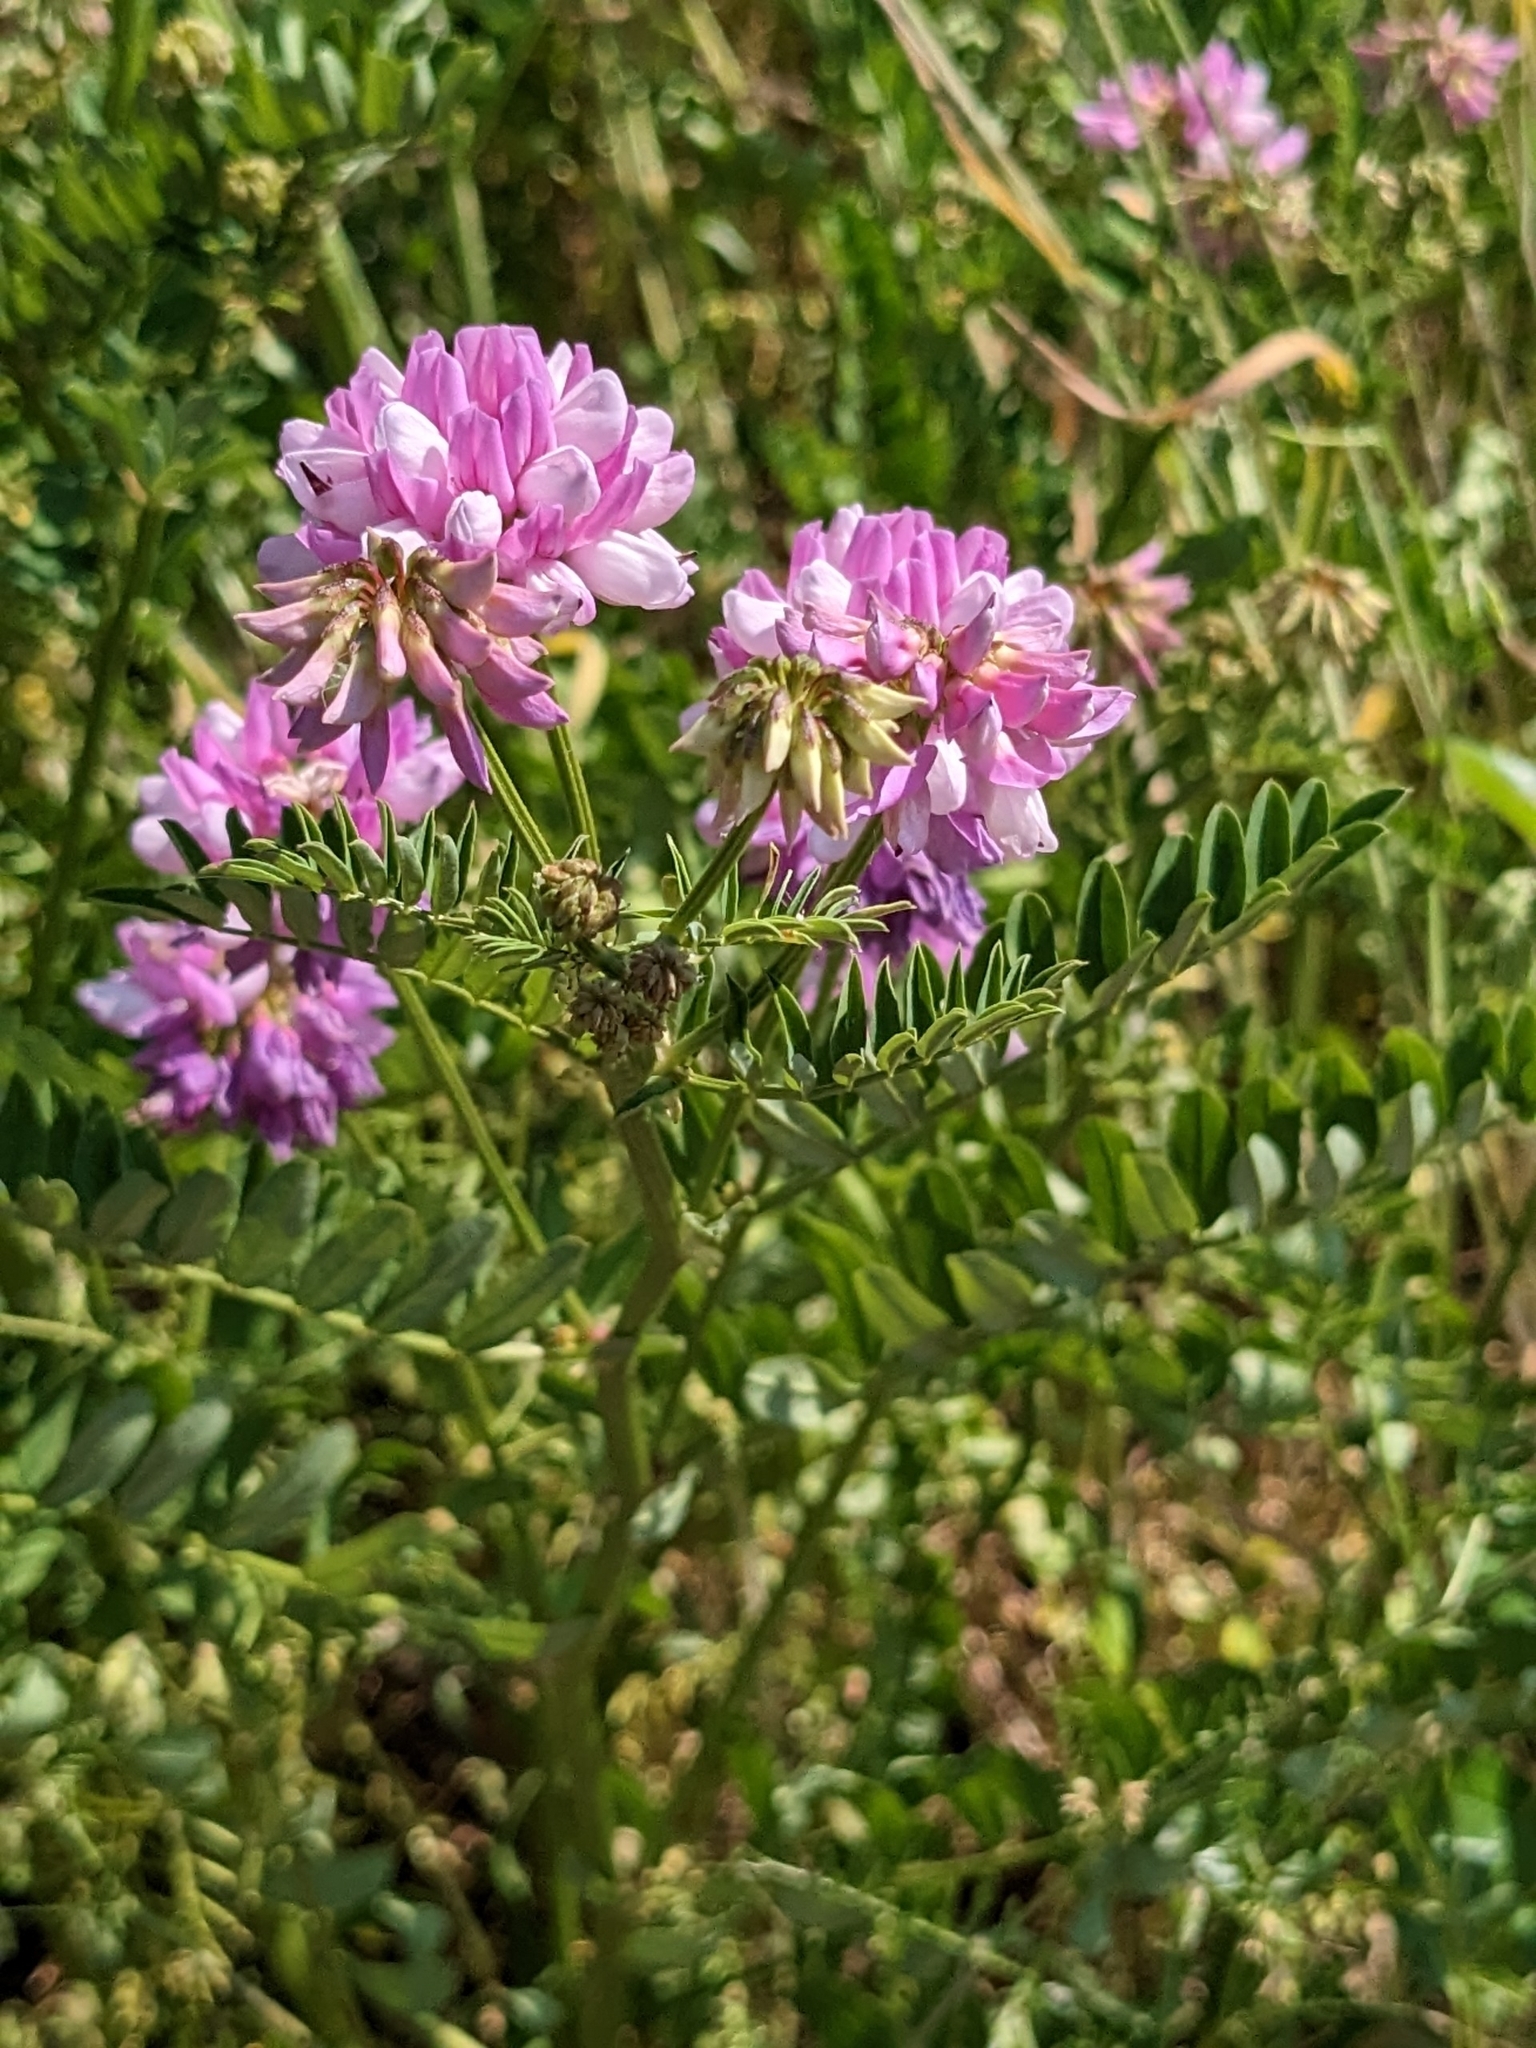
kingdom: Plantae
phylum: Tracheophyta
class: Magnoliopsida
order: Fabales
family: Fabaceae
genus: Coronilla
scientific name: Coronilla varia
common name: Crownvetch
